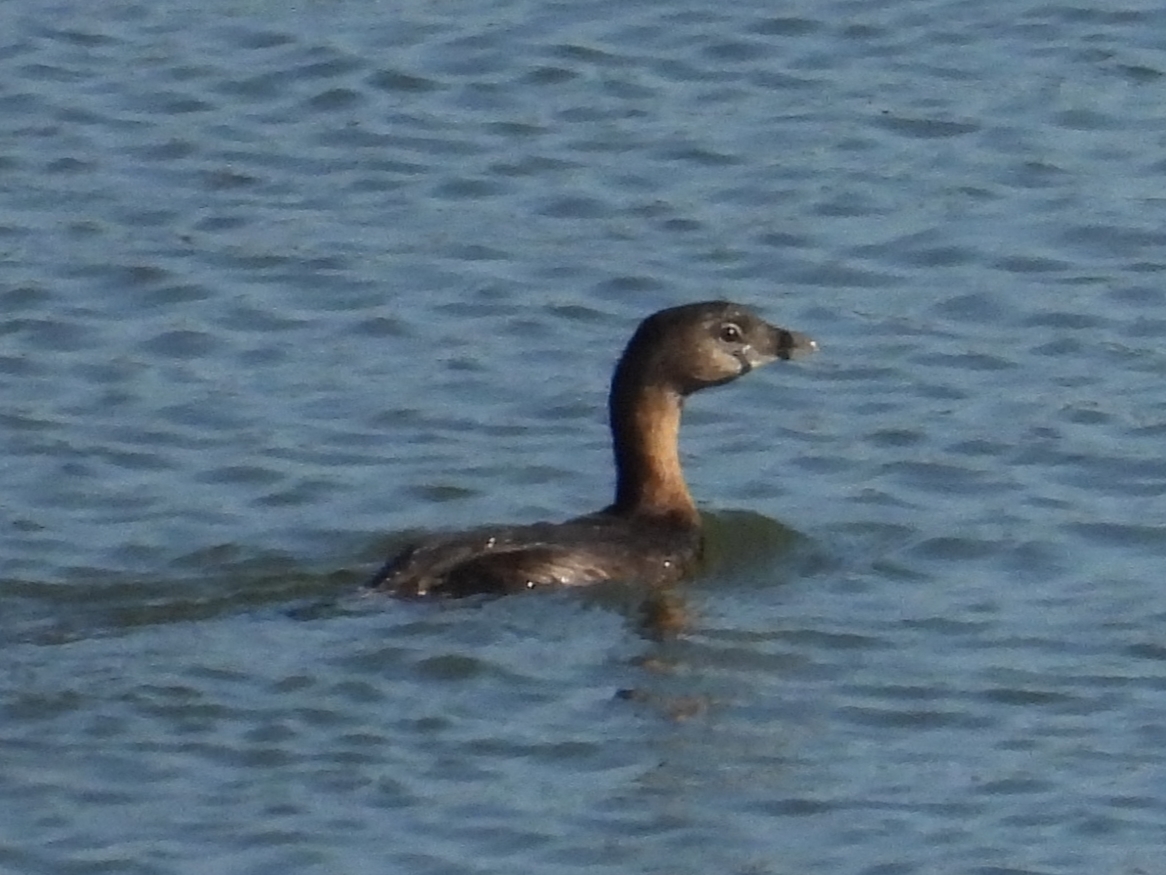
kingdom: Animalia
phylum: Chordata
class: Aves
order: Podicipediformes
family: Podicipedidae
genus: Podilymbus
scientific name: Podilymbus podiceps
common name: Pied-billed grebe
